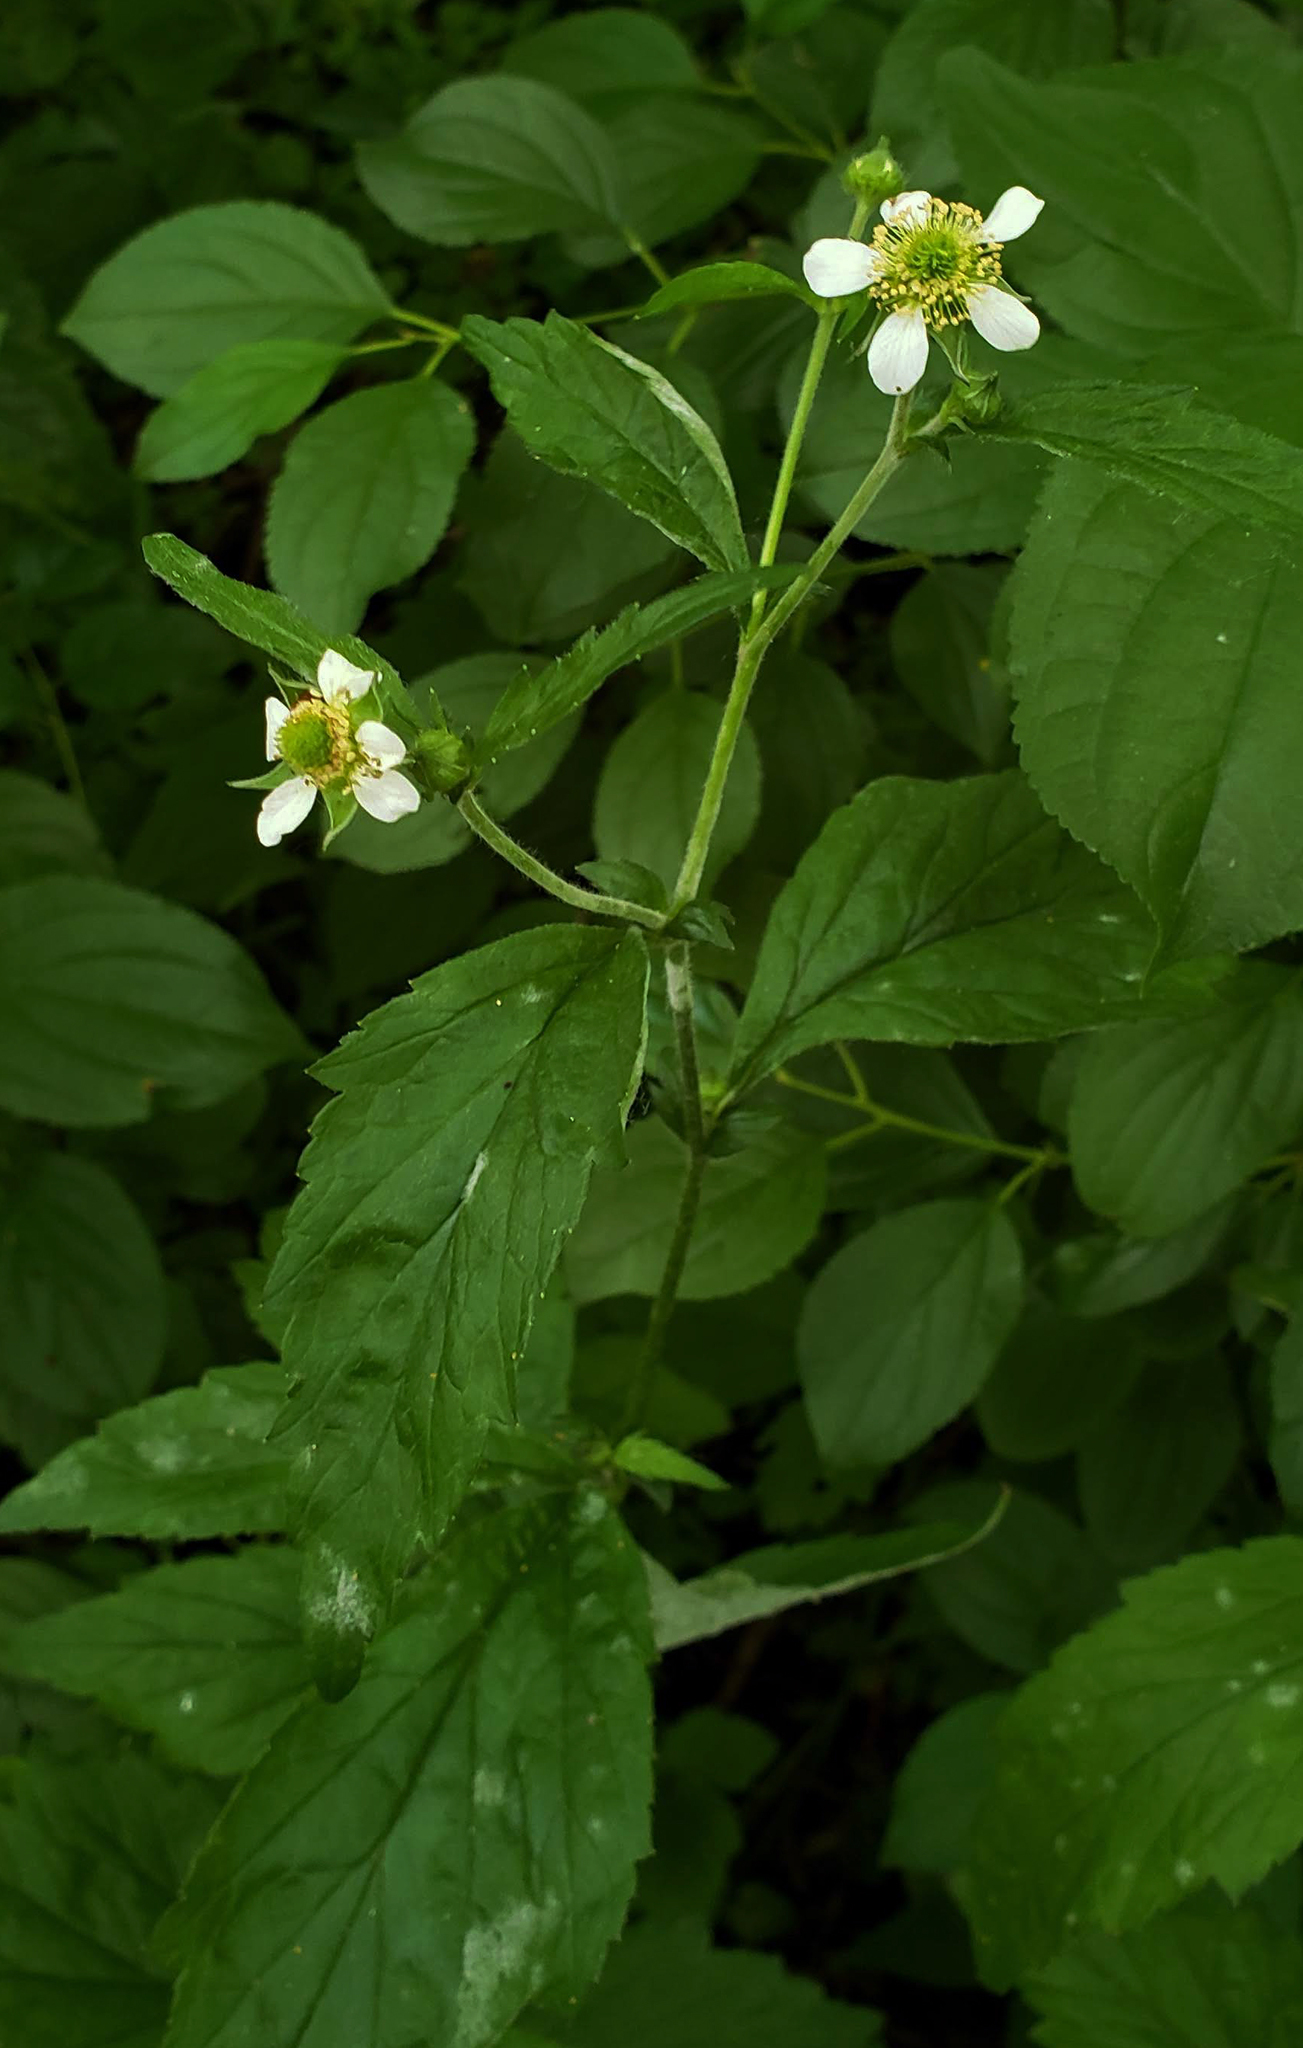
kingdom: Plantae
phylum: Tracheophyta
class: Magnoliopsida
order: Rosales
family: Rosaceae
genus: Geum
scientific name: Geum canadense
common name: White avens
